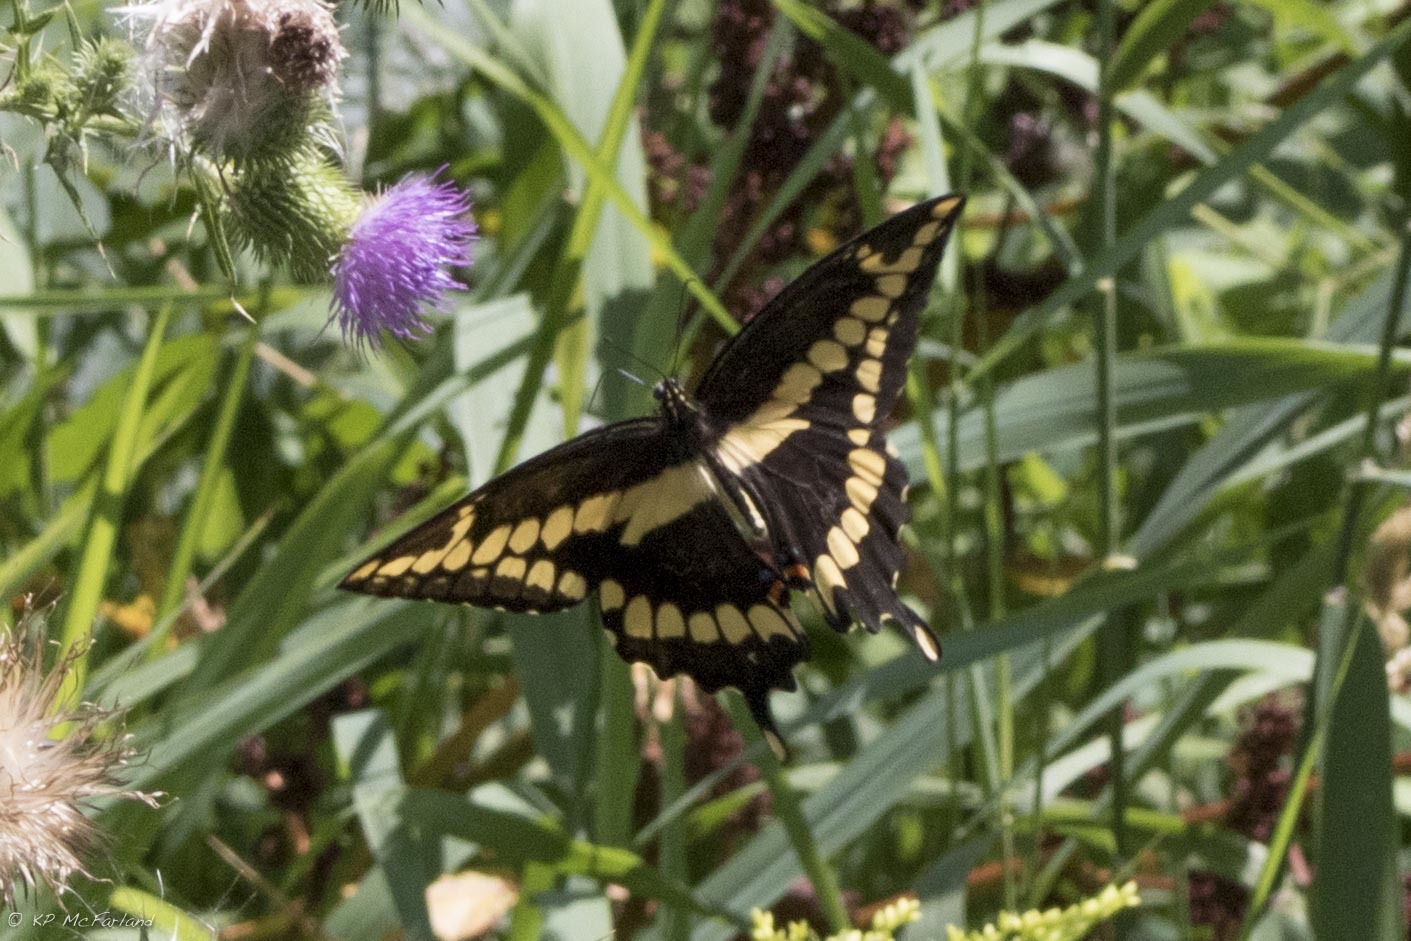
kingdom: Animalia
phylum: Arthropoda
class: Insecta
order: Lepidoptera
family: Papilionidae
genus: Papilio
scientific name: Papilio cresphontes
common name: Giant swallowtail
